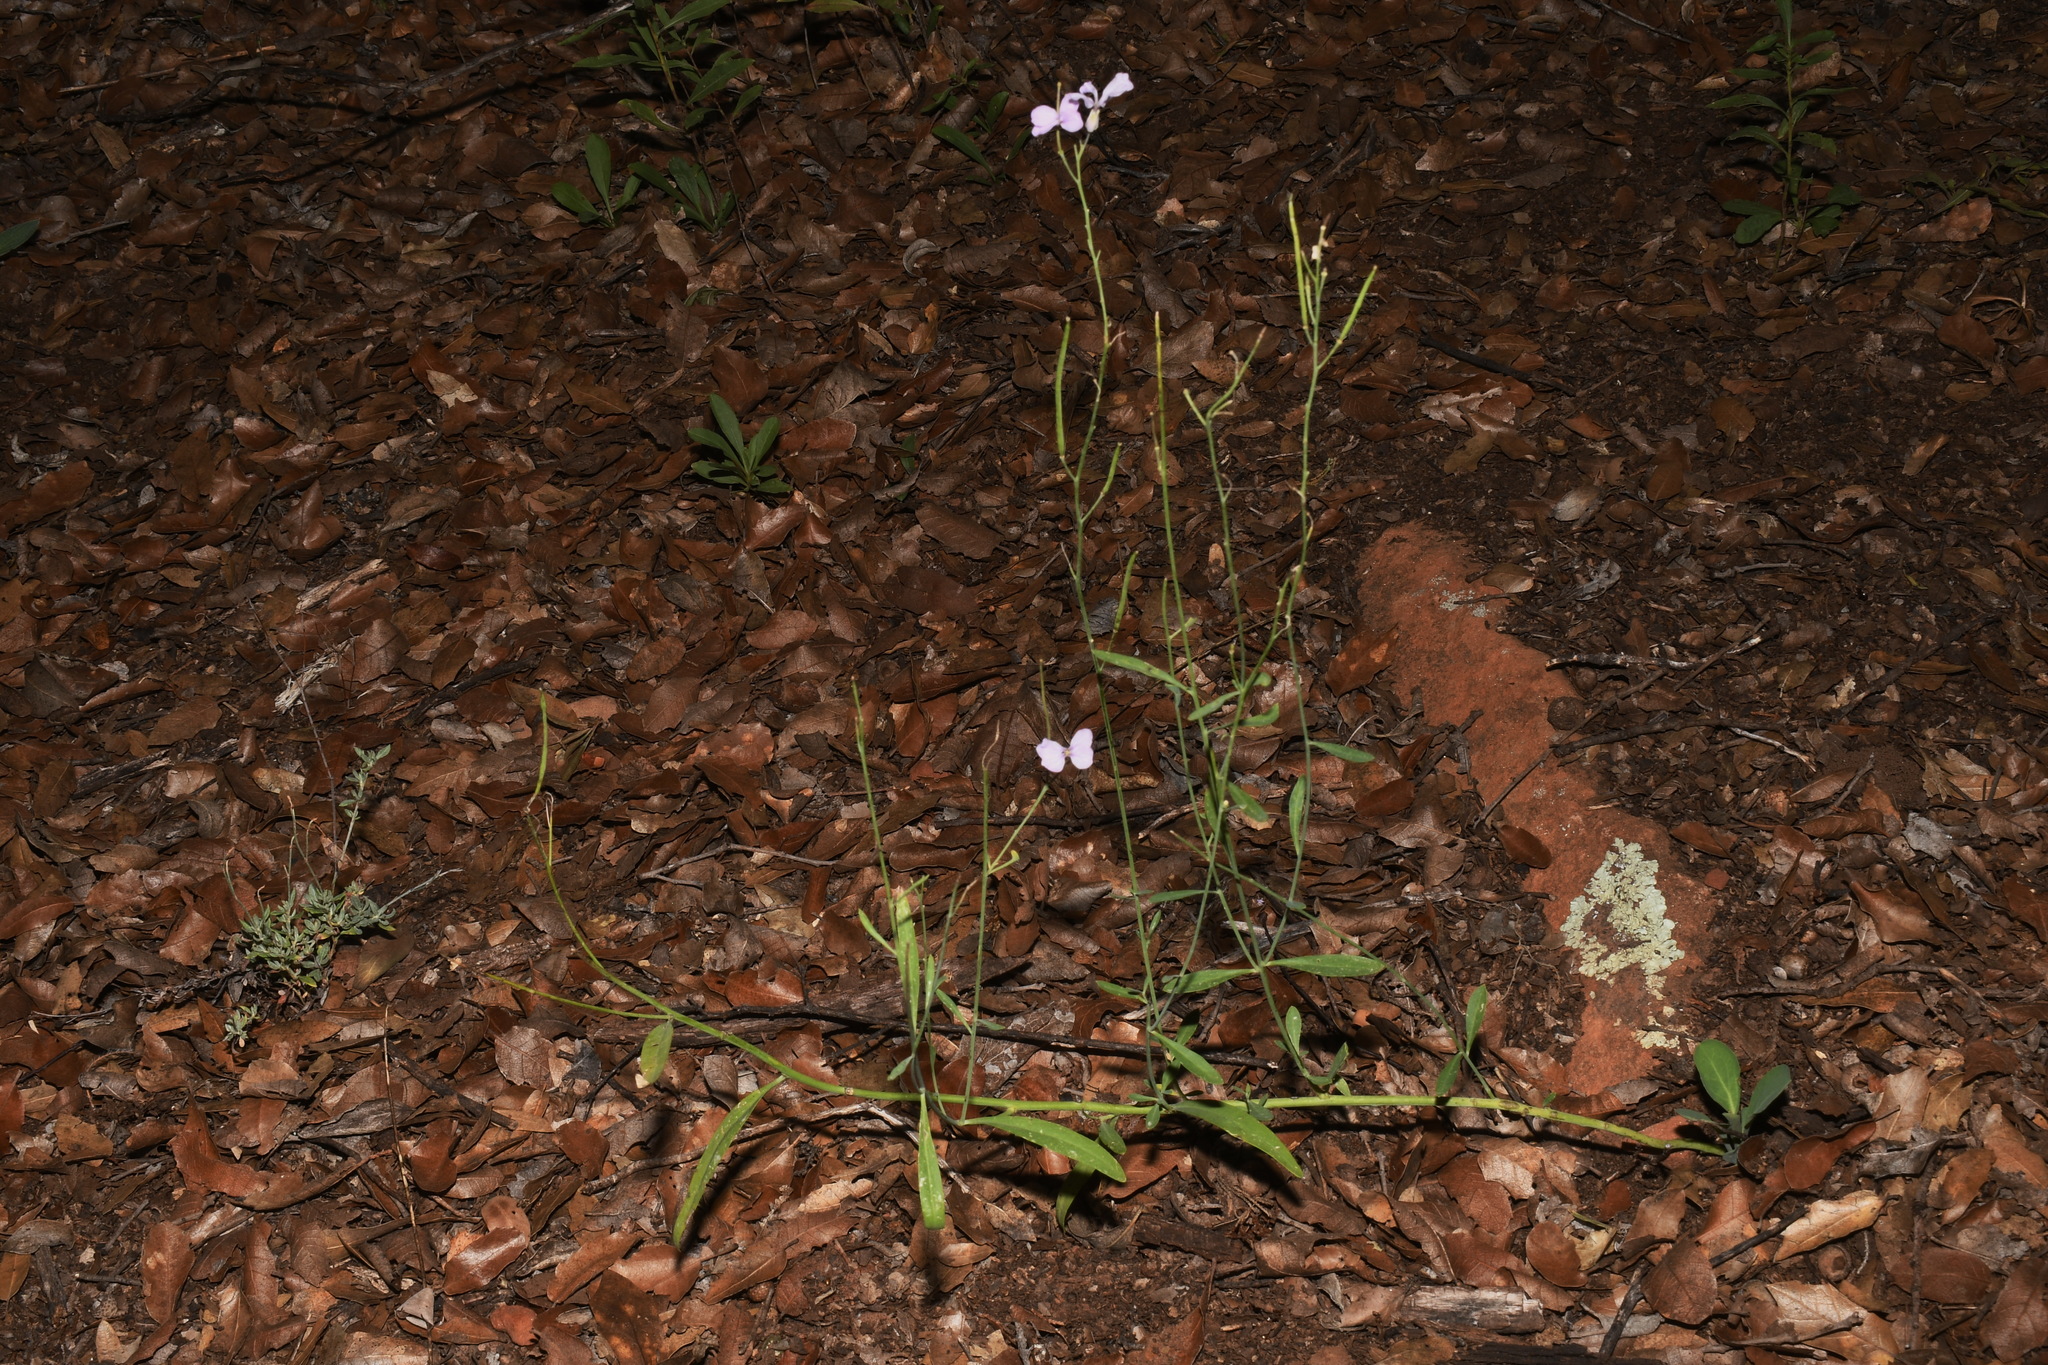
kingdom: Plantae
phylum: Tracheophyta
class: Magnoliopsida
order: Brassicales
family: Brassicaceae
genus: Hesperidanthus
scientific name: Hesperidanthus linearifolius
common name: Slim-leaf plains mustard
